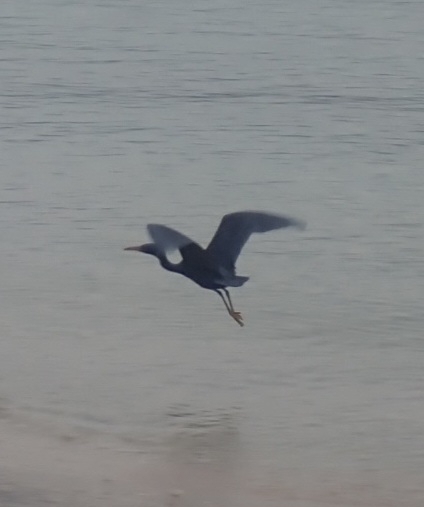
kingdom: Animalia
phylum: Chordata
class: Aves
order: Pelecaniformes
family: Ardeidae
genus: Egretta
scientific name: Egretta sacra
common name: Pacific reef heron
